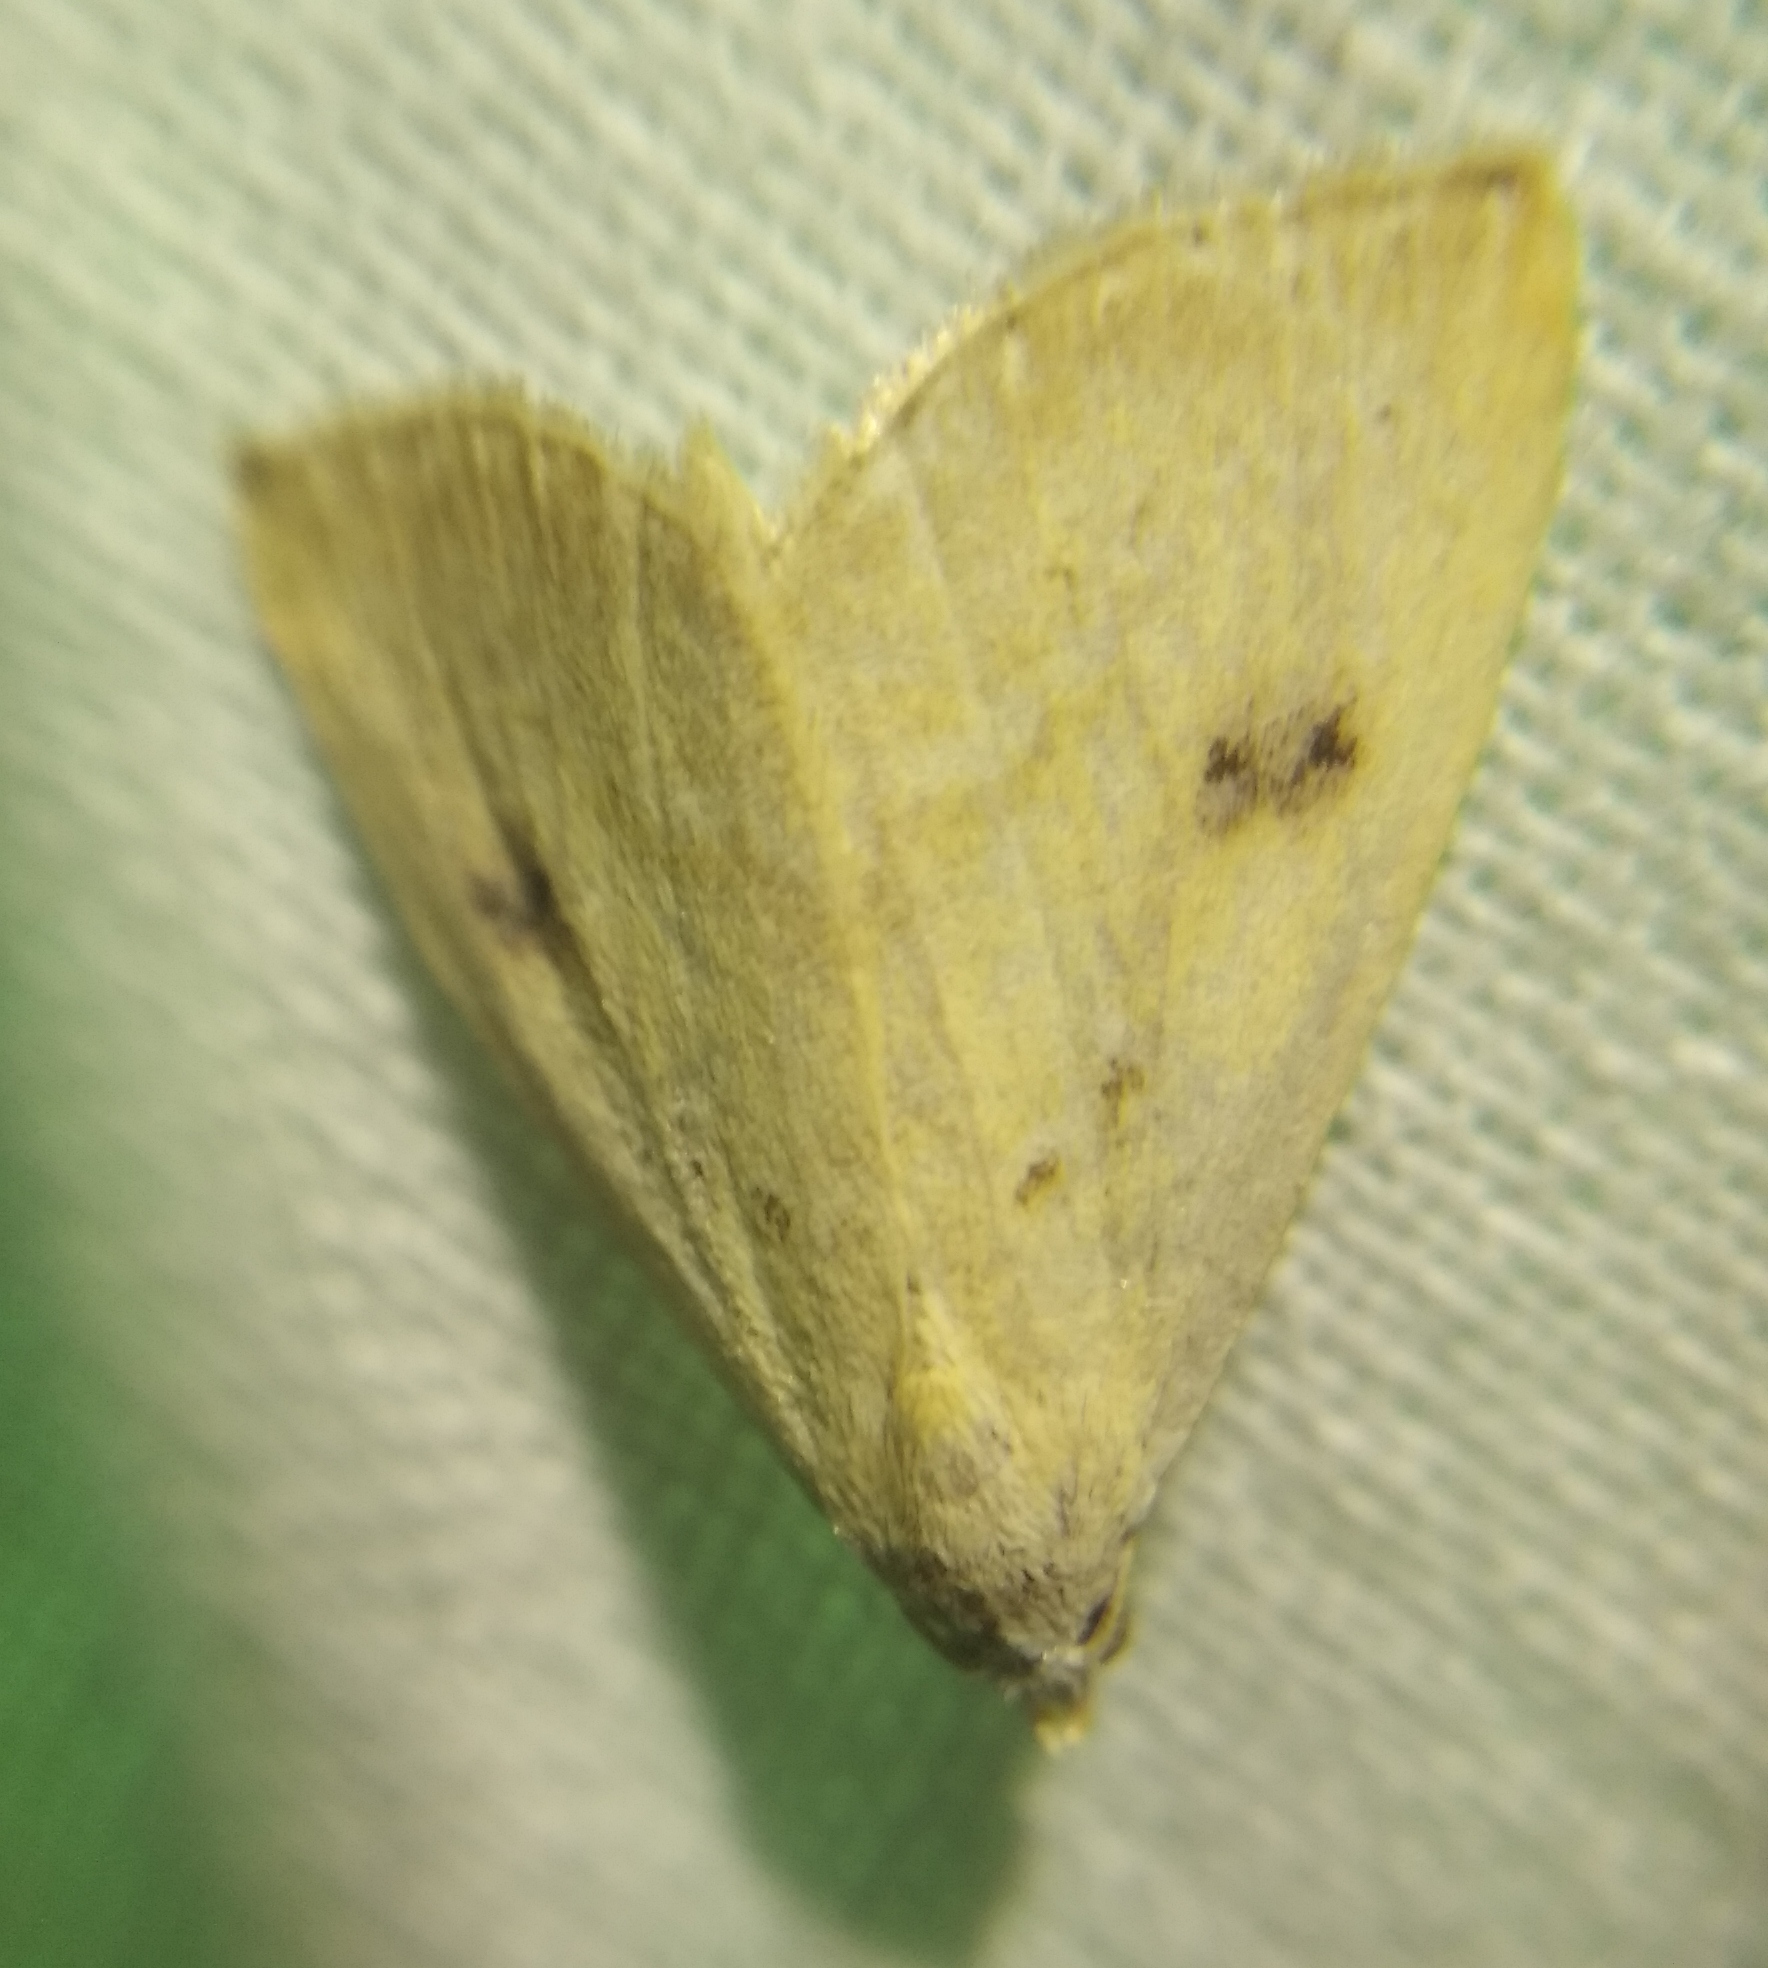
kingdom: Animalia
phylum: Arthropoda
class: Insecta
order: Lepidoptera
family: Erebidae
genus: Rivula
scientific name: Rivula sericealis
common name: Straw dot
